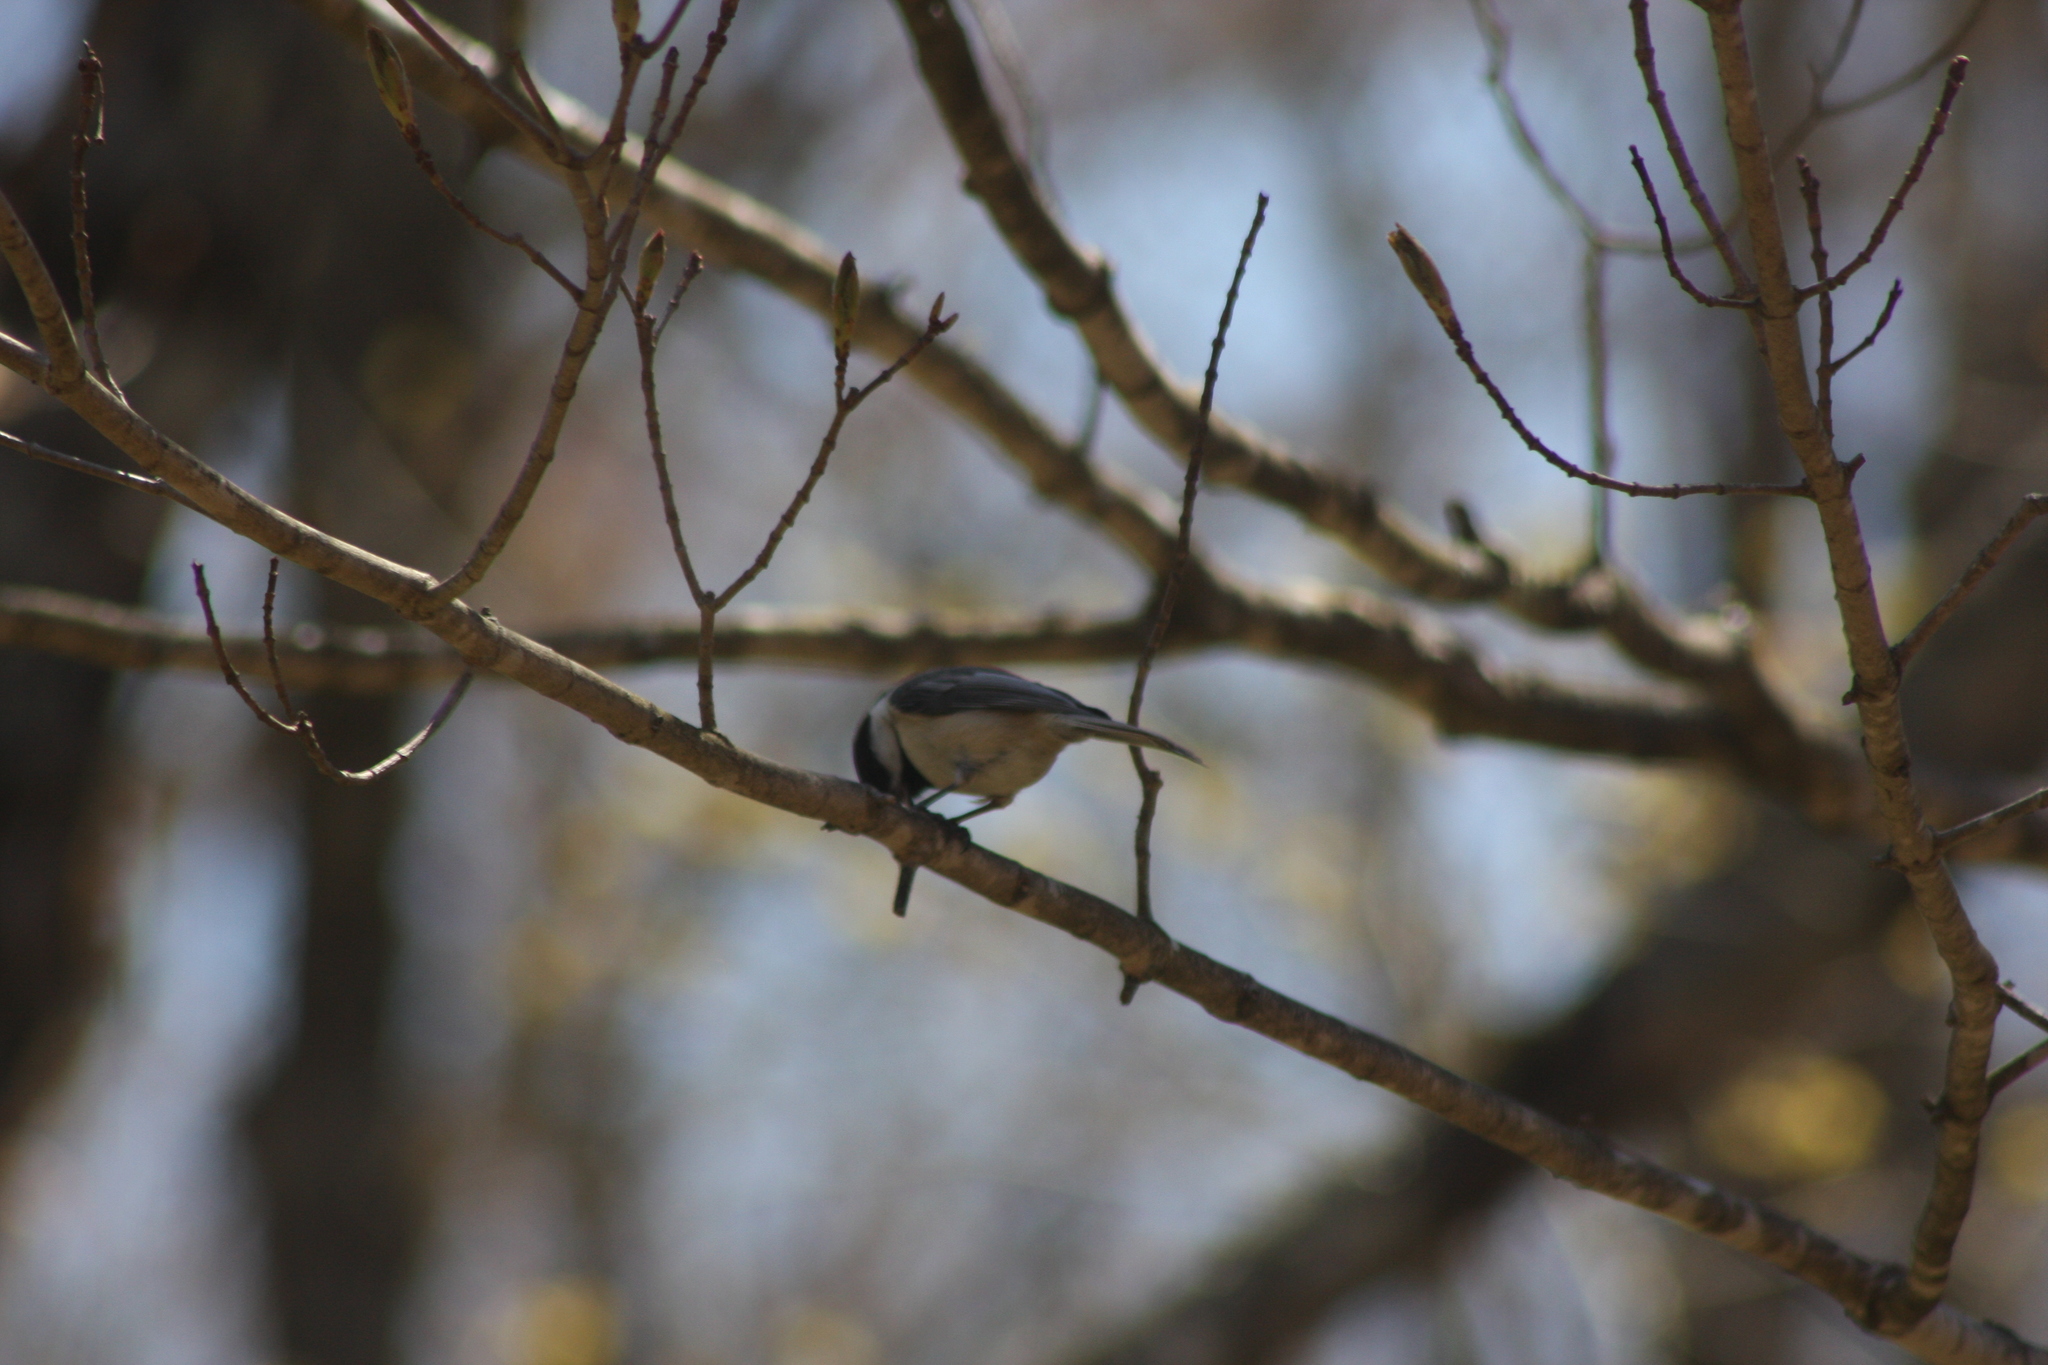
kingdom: Animalia
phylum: Chordata
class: Aves
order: Passeriformes
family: Paridae
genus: Poecile
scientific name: Poecile atricapillus
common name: Black-capped chickadee
